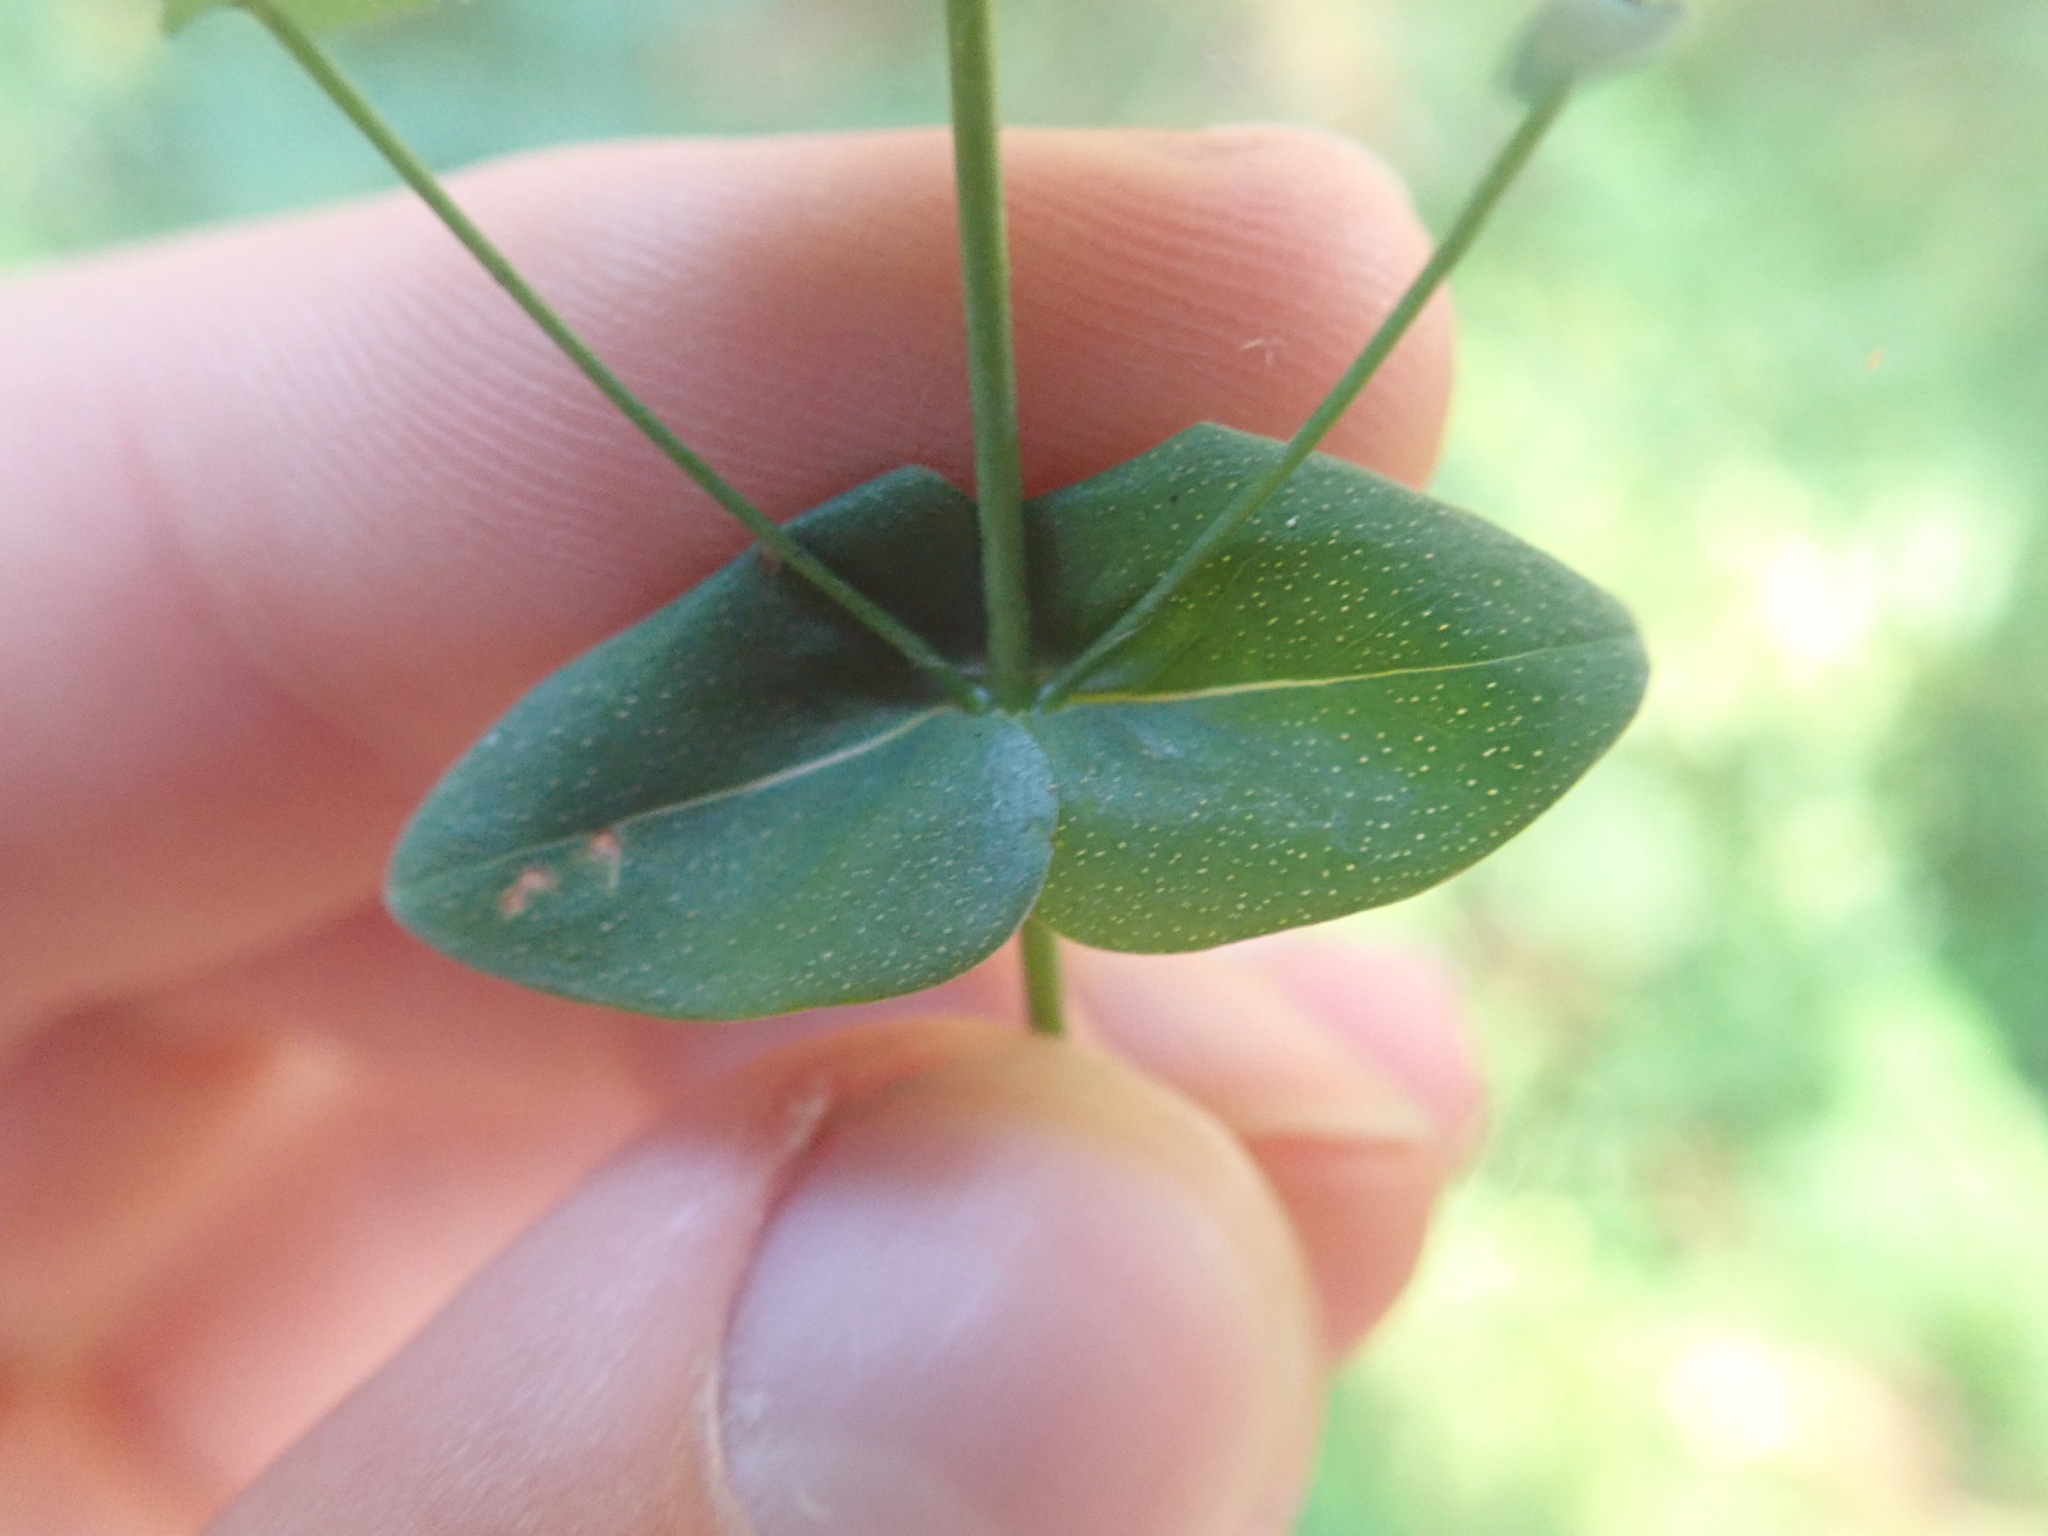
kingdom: Plantae
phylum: Tracheophyta
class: Magnoliopsida
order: Malpighiales
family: Hypericaceae
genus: Hypericum
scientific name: Hypericum pulchrum
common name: Slender st. john's-wort
